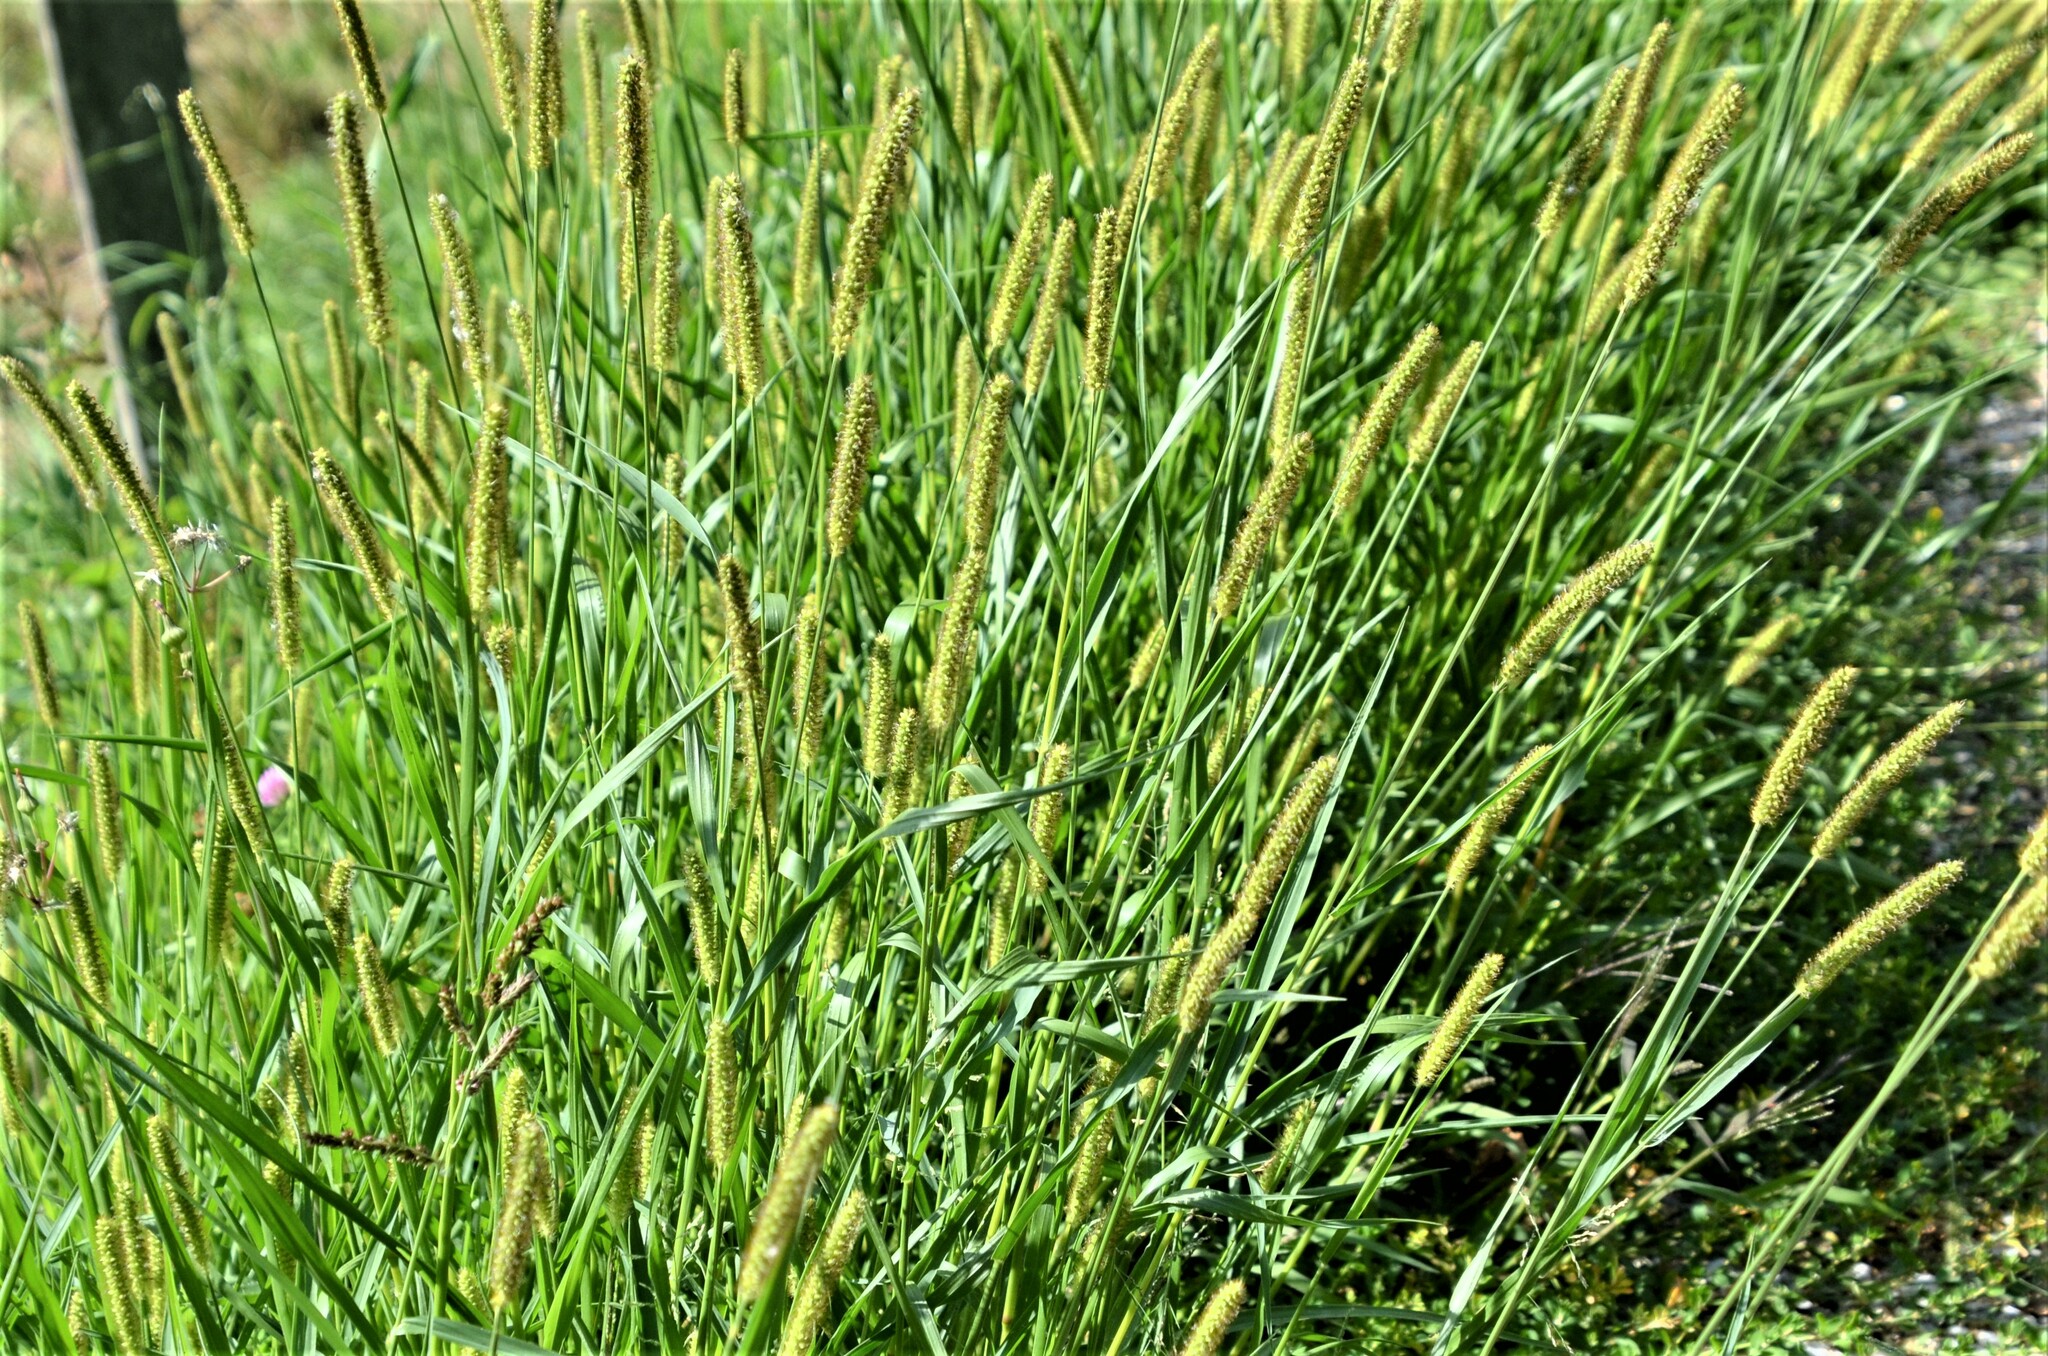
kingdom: Plantae
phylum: Tracheophyta
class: Liliopsida
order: Poales
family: Poaceae
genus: Setaria
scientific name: Setaria pumila
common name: Yellow bristle-grass
